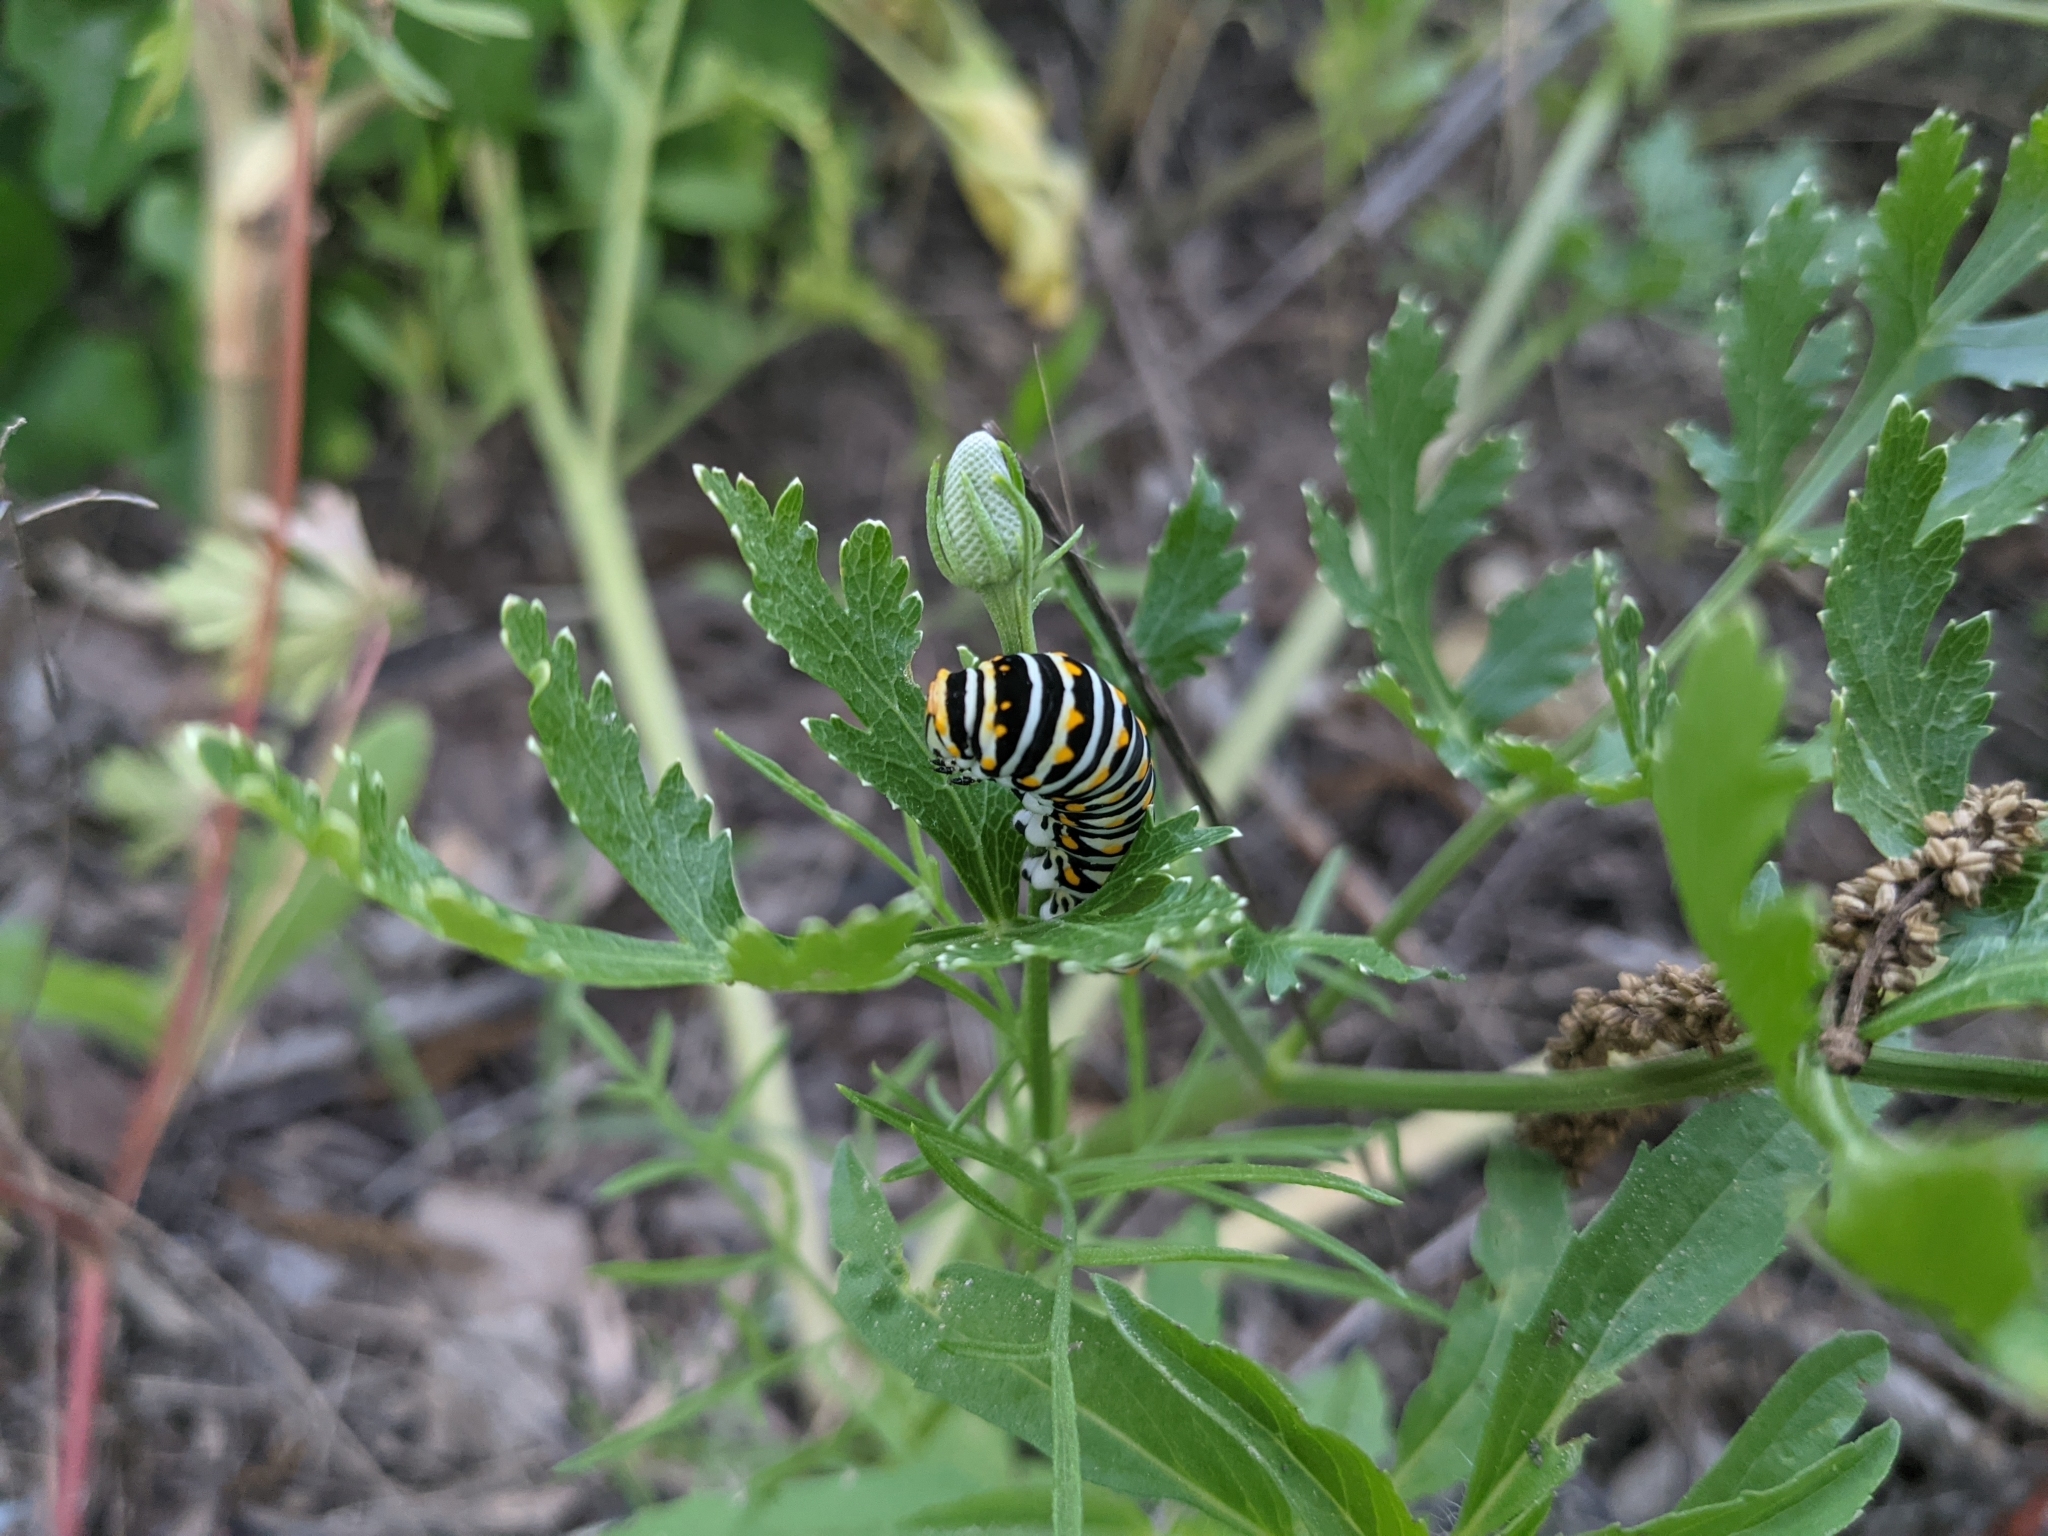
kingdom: Animalia
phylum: Arthropoda
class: Insecta
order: Lepidoptera
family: Papilionidae
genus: Papilio
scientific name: Papilio polyxenes
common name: Black swallowtail
